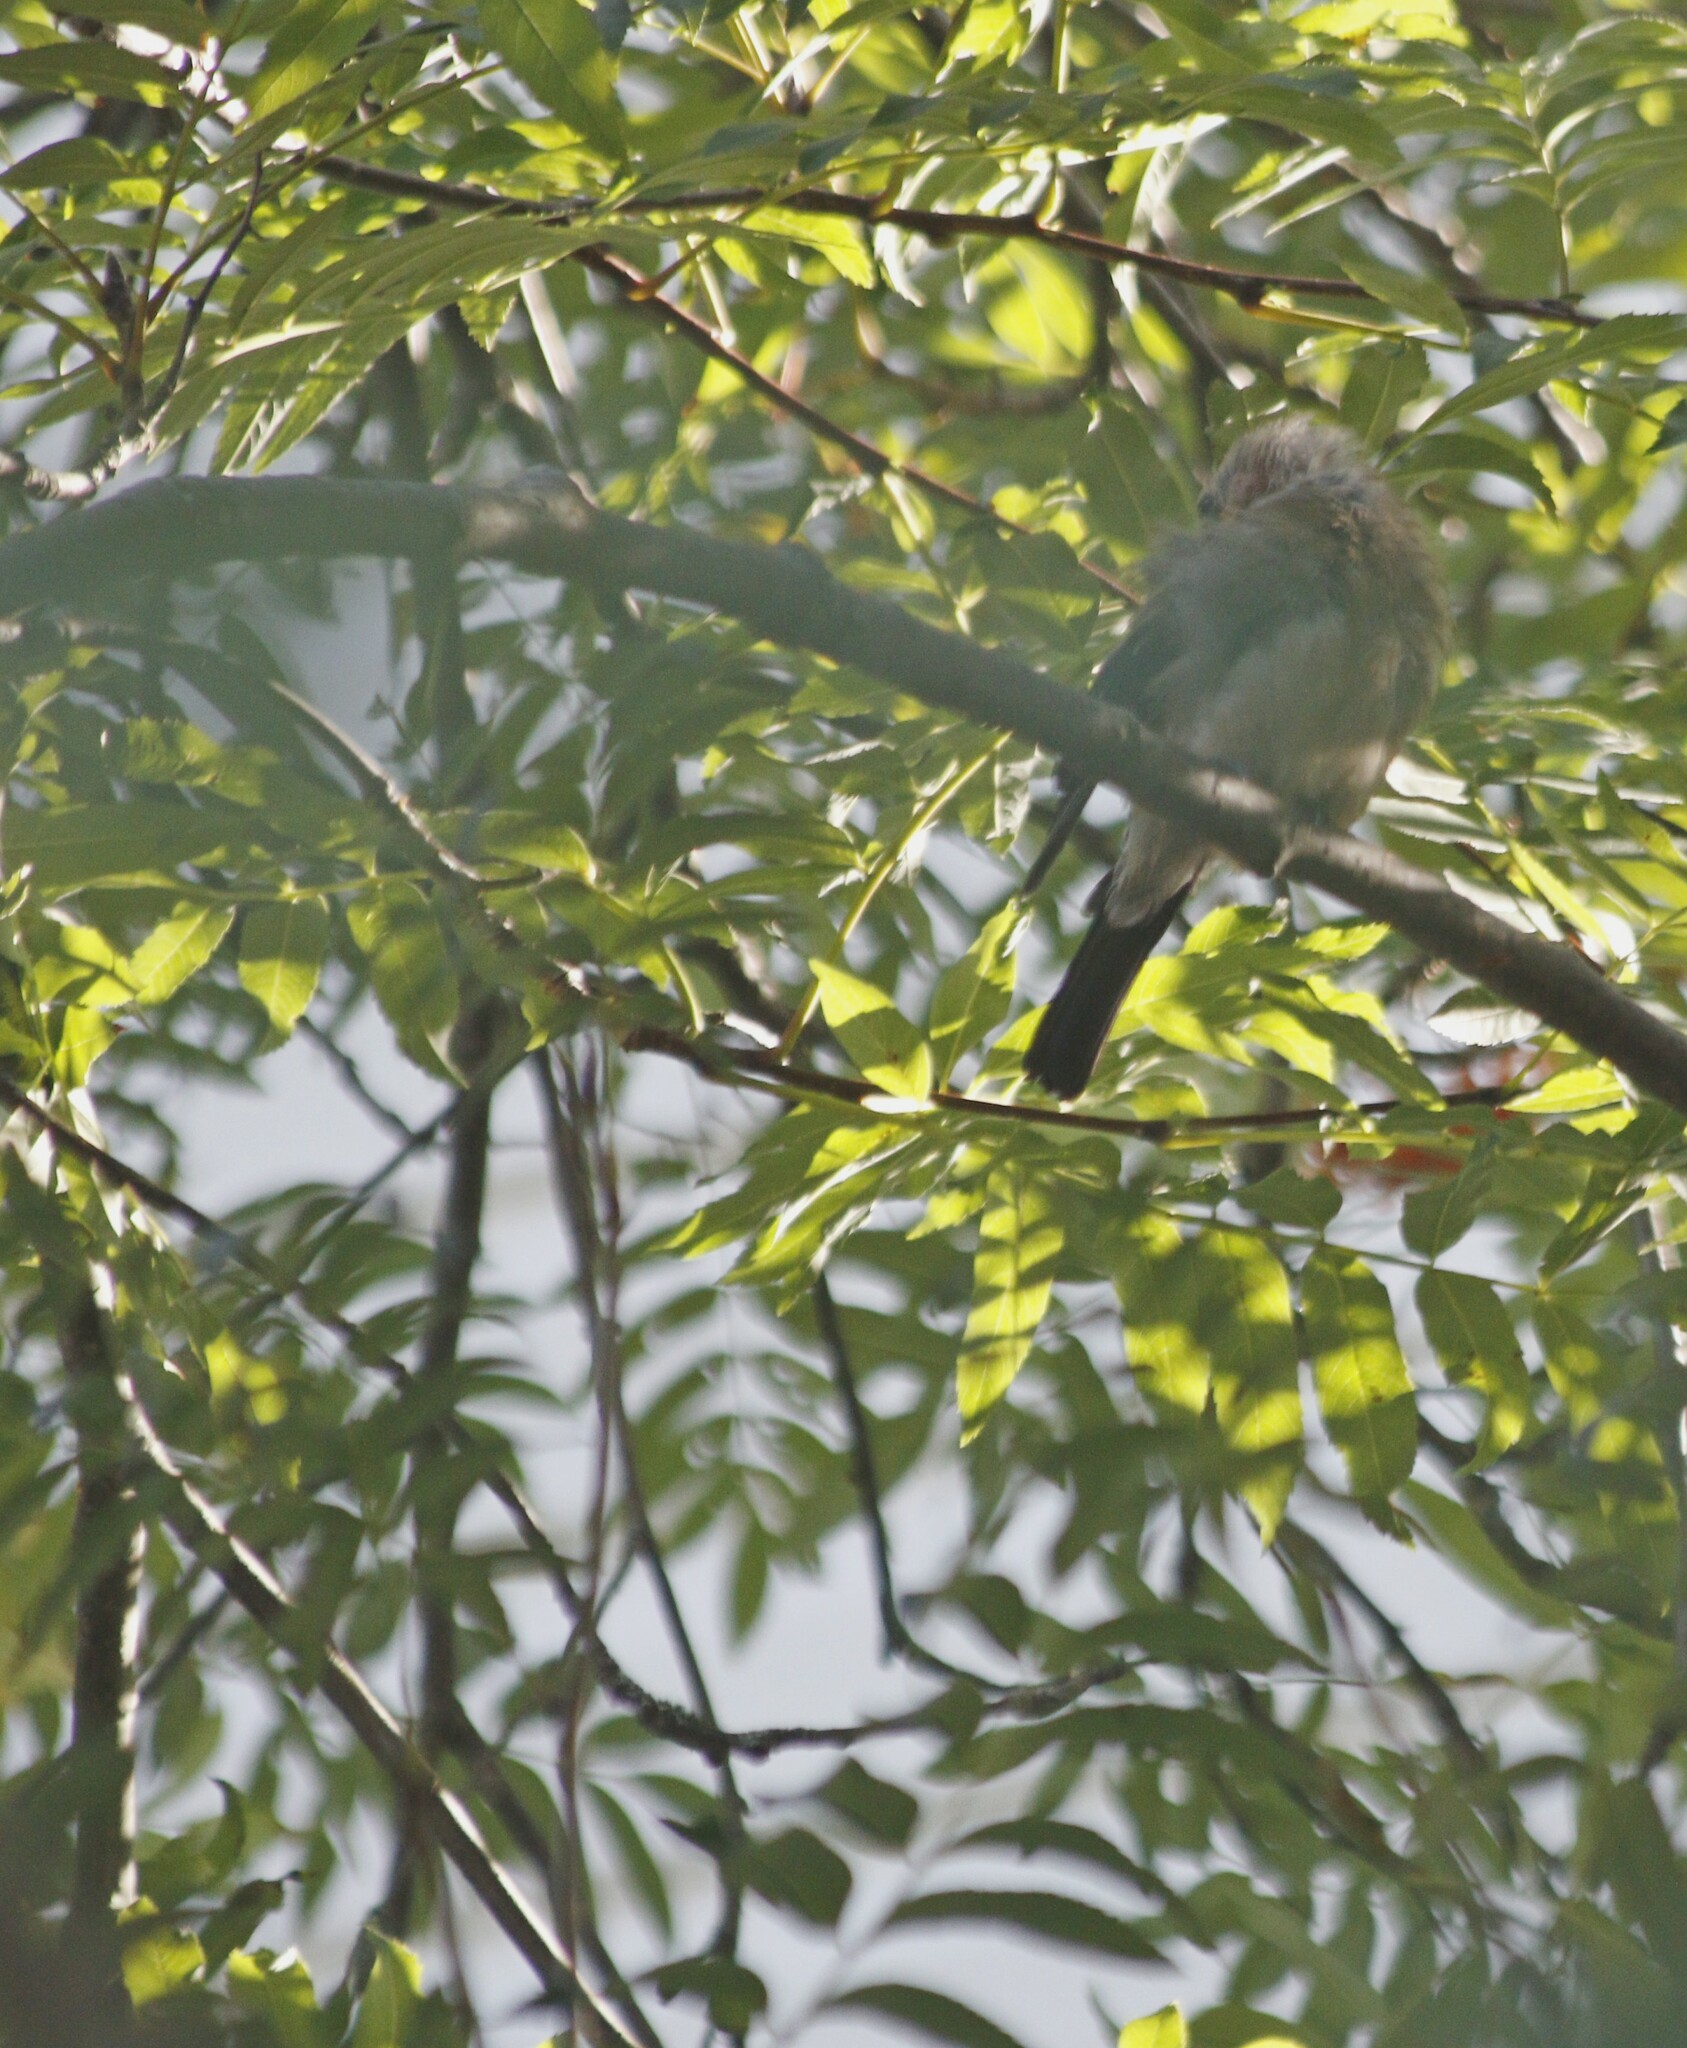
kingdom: Animalia
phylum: Chordata
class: Aves
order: Passeriformes
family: Fringillidae
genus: Pyrrhula
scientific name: Pyrrhula pyrrhula
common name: Eurasian bullfinch
